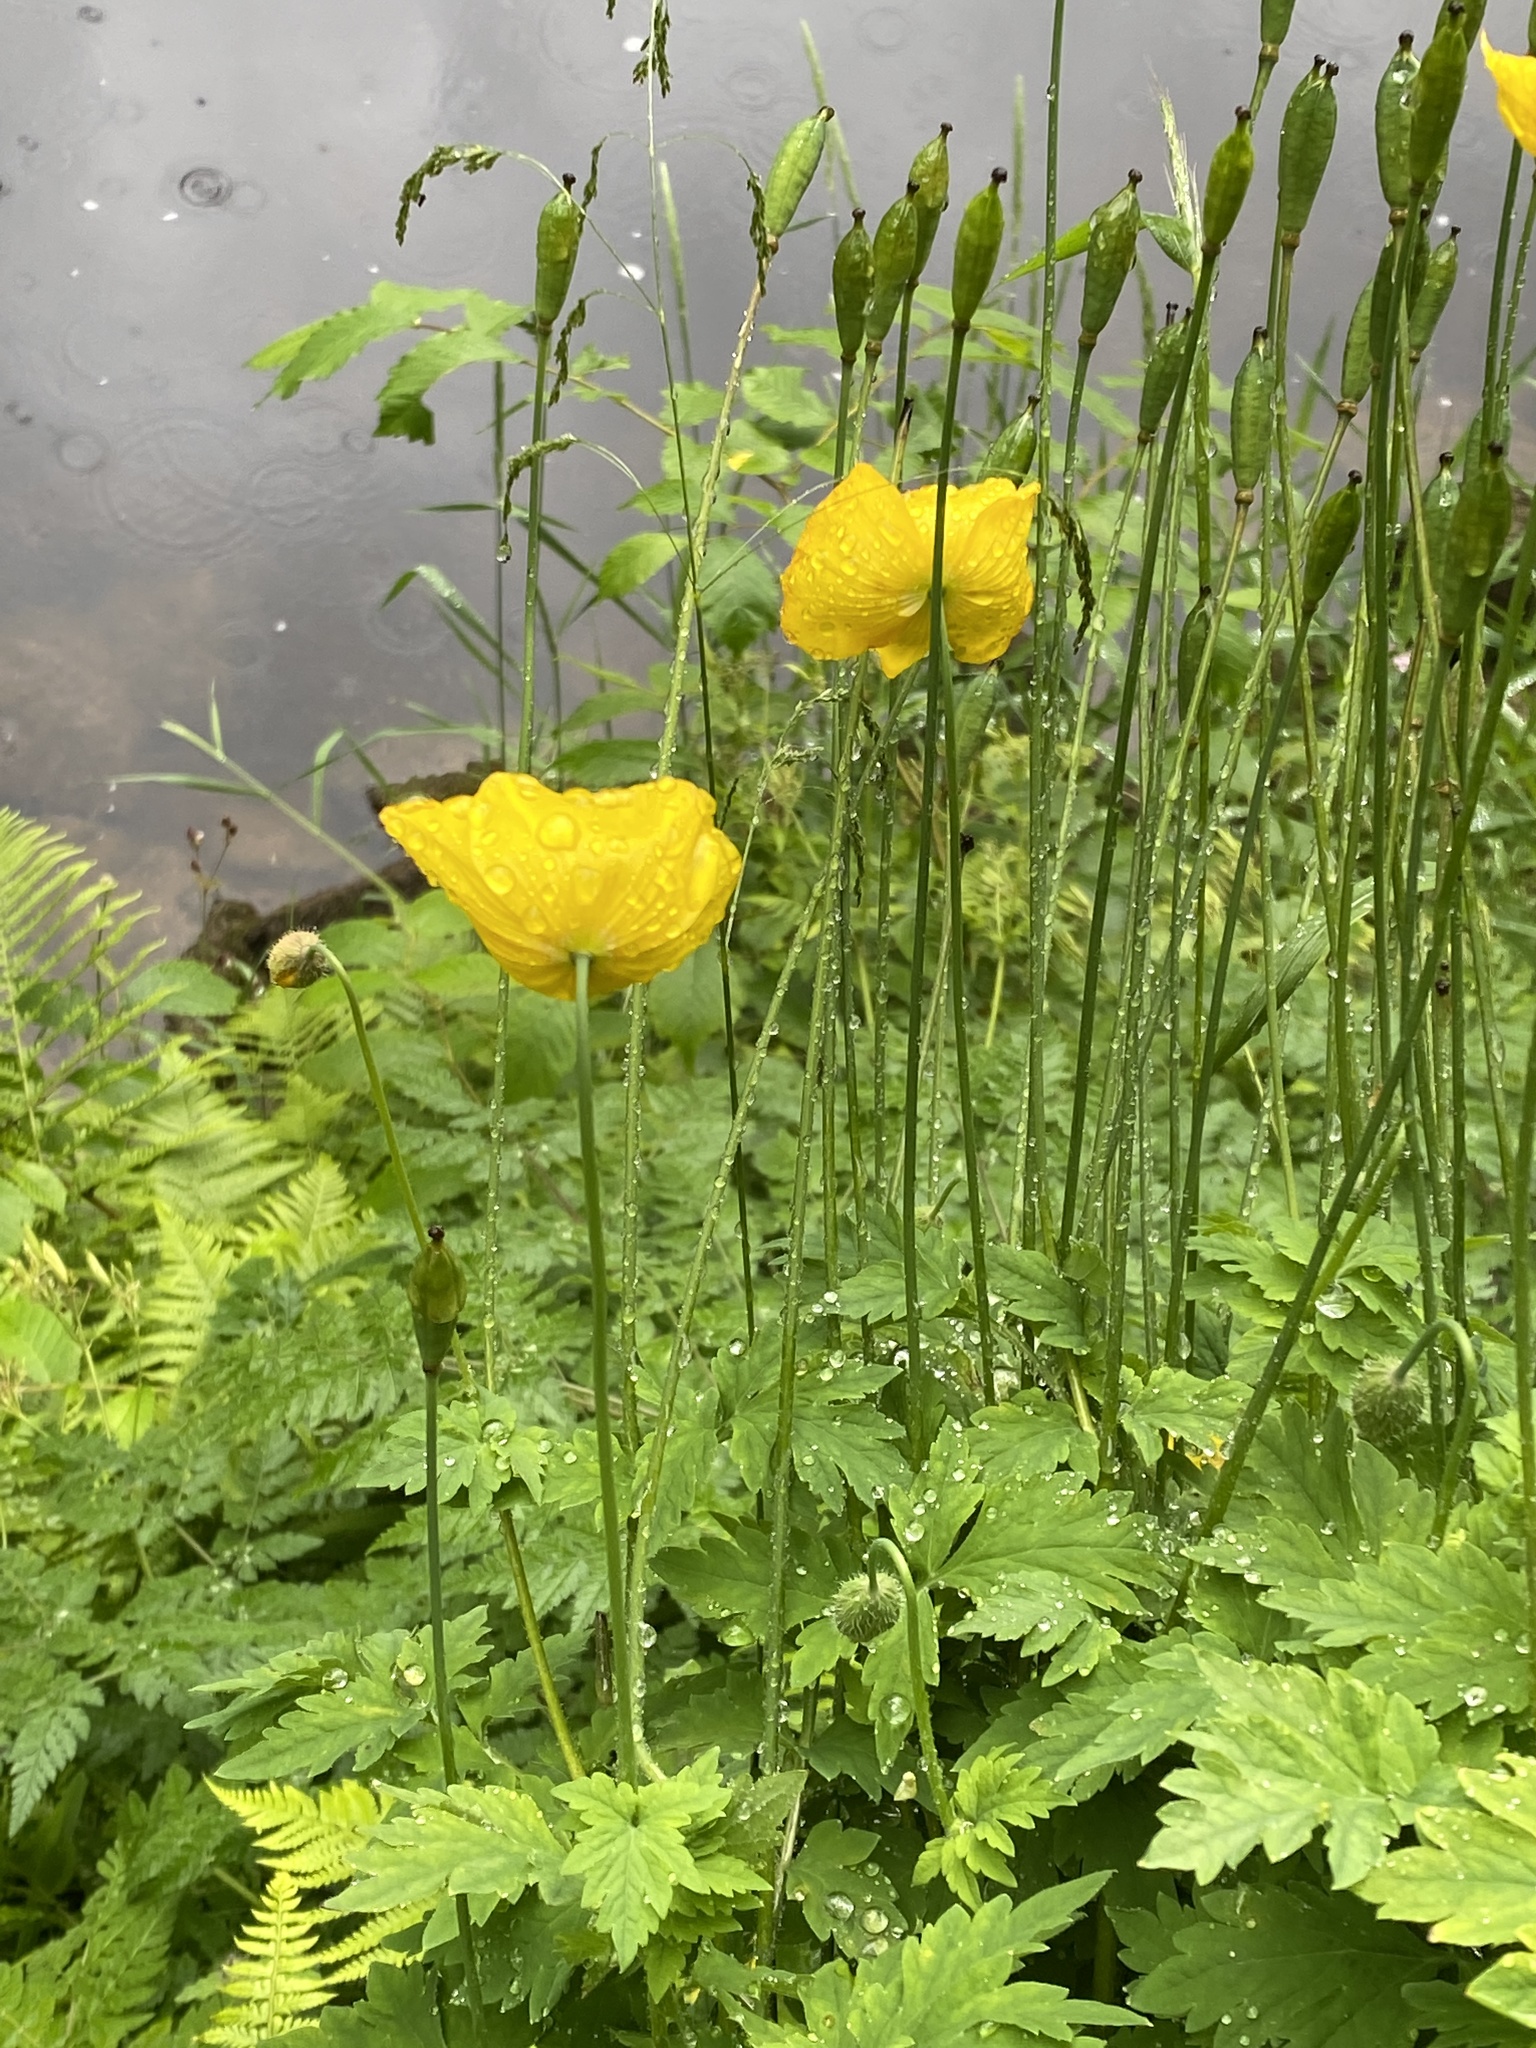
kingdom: Plantae
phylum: Tracheophyta
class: Magnoliopsida
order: Ranunculales
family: Papaveraceae
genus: Papaver
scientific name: Papaver cambricum
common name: Poppy
